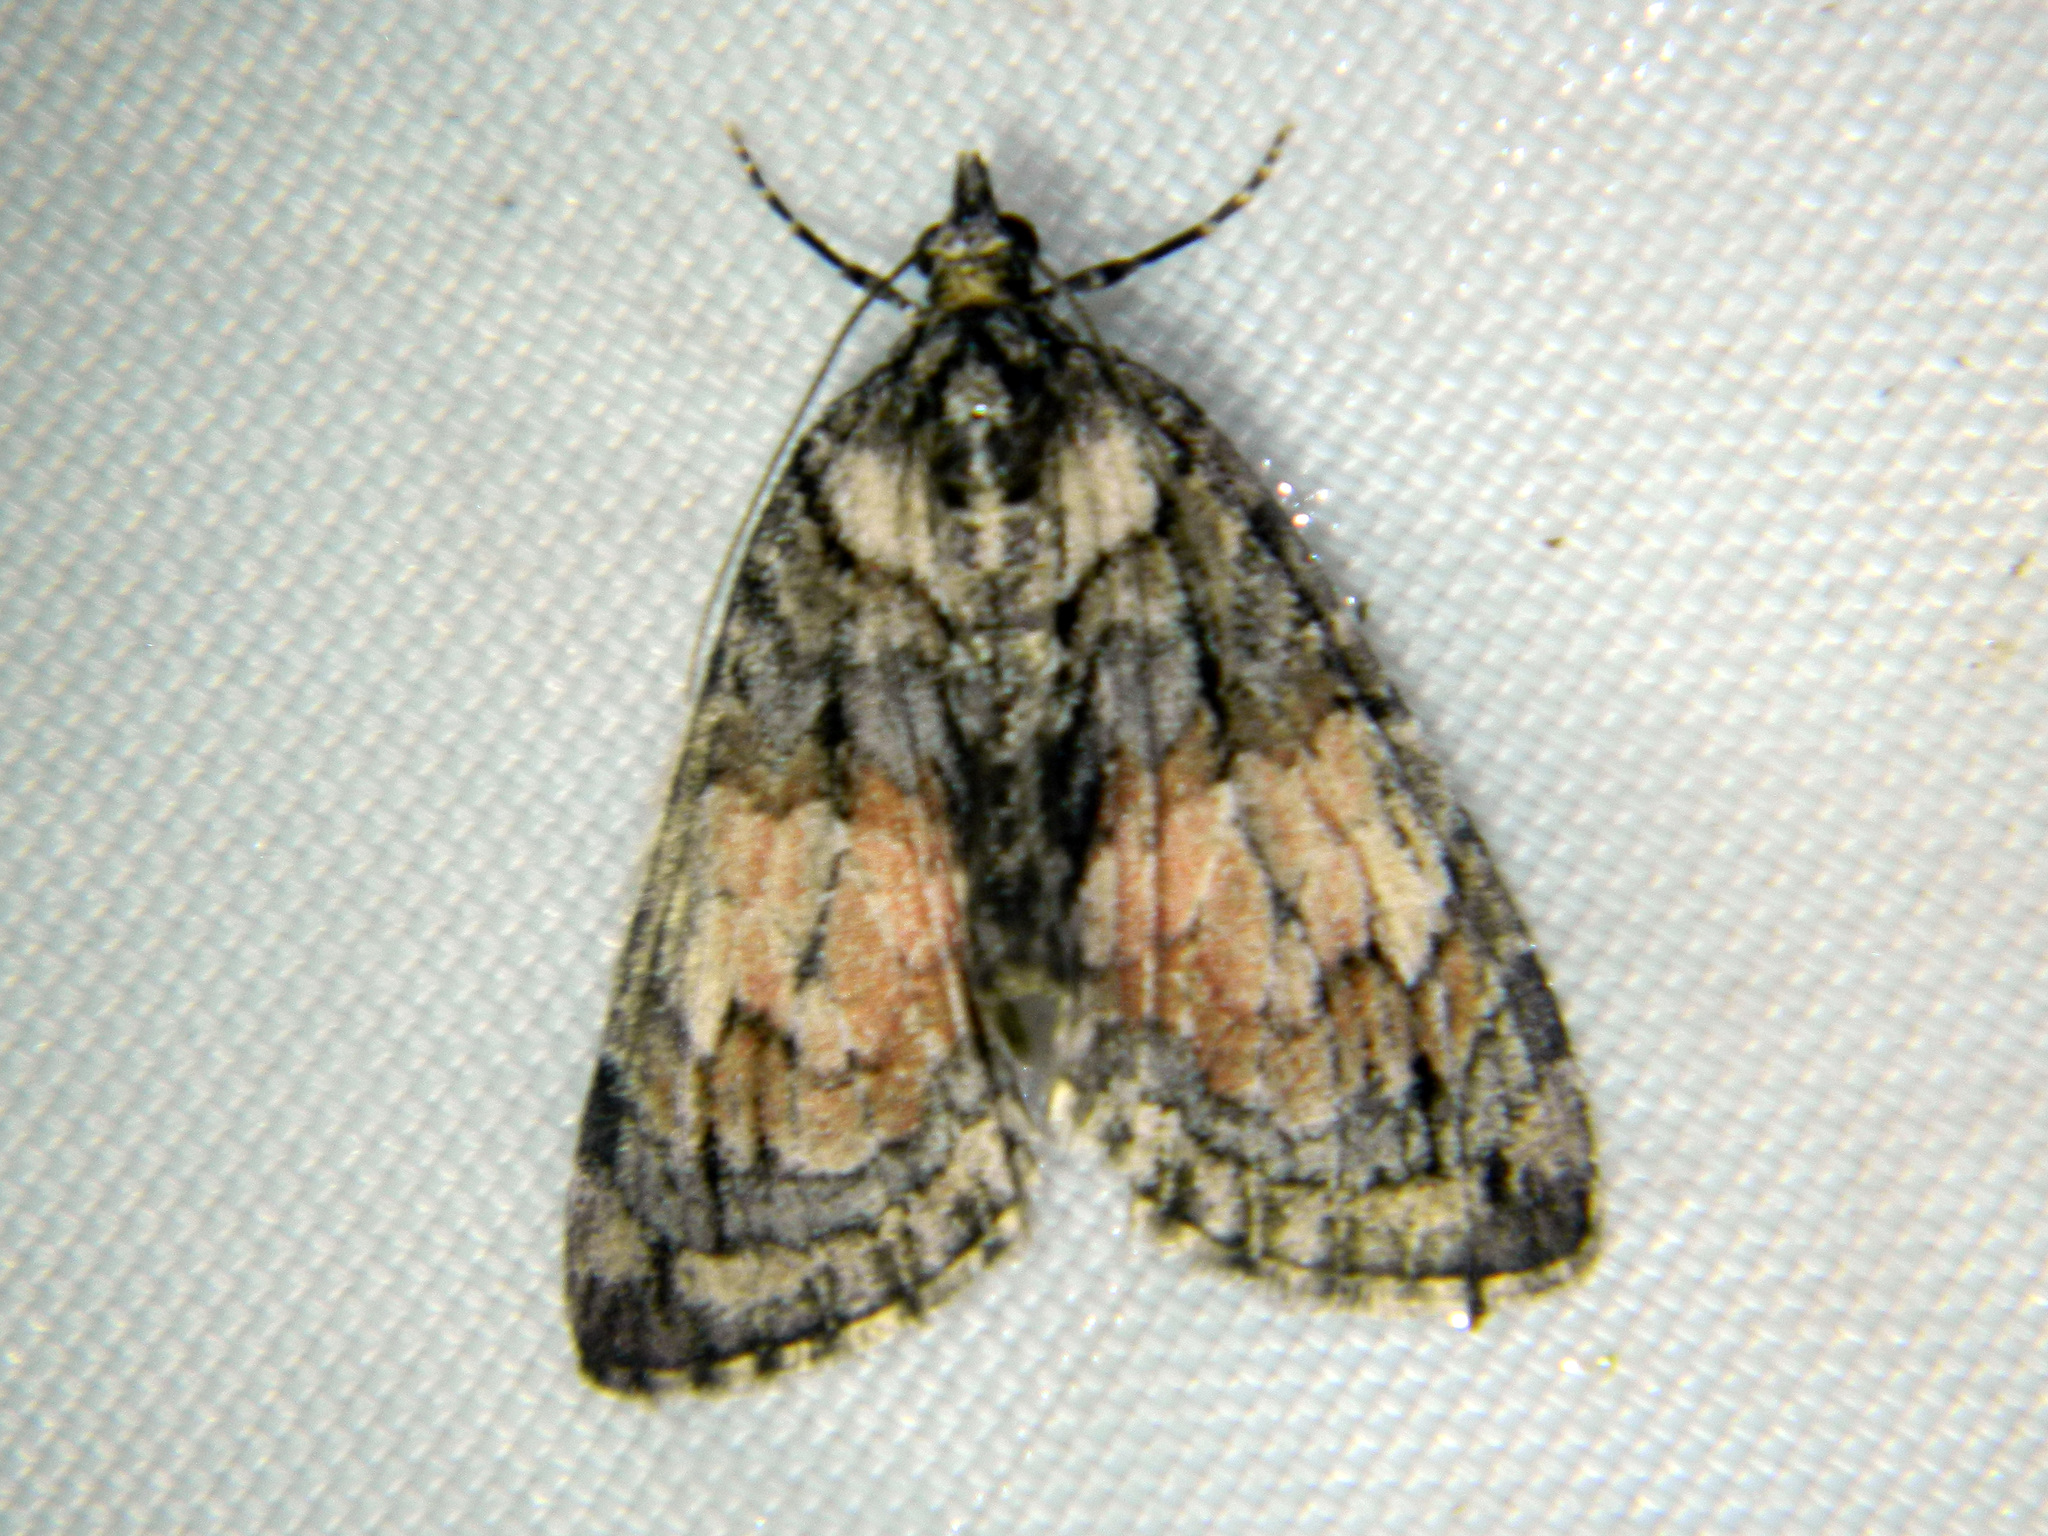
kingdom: Animalia
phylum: Arthropoda
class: Insecta
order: Lepidoptera
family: Geometridae
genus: Hydriomena
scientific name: Hydriomena perfracta
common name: Shattered hydriomena moth
